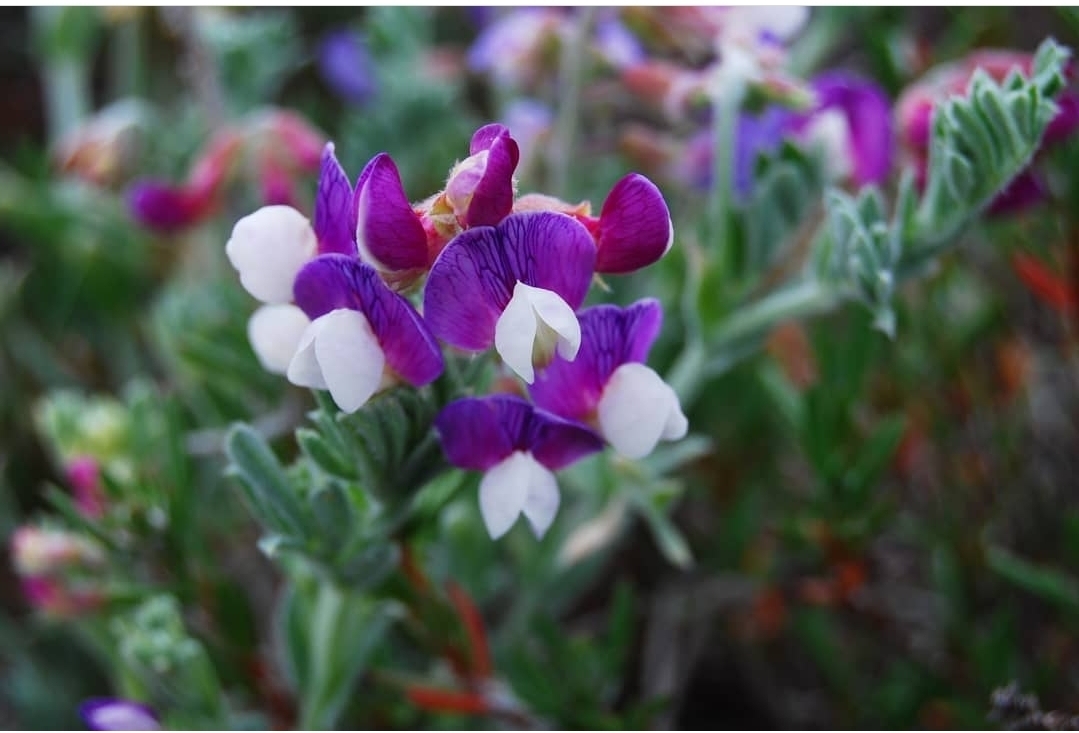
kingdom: Plantae
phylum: Tracheophyta
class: Magnoliopsida
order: Fabales
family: Fabaceae
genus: Lathyrus
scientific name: Lathyrus littoralis
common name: Dune sweet pea
